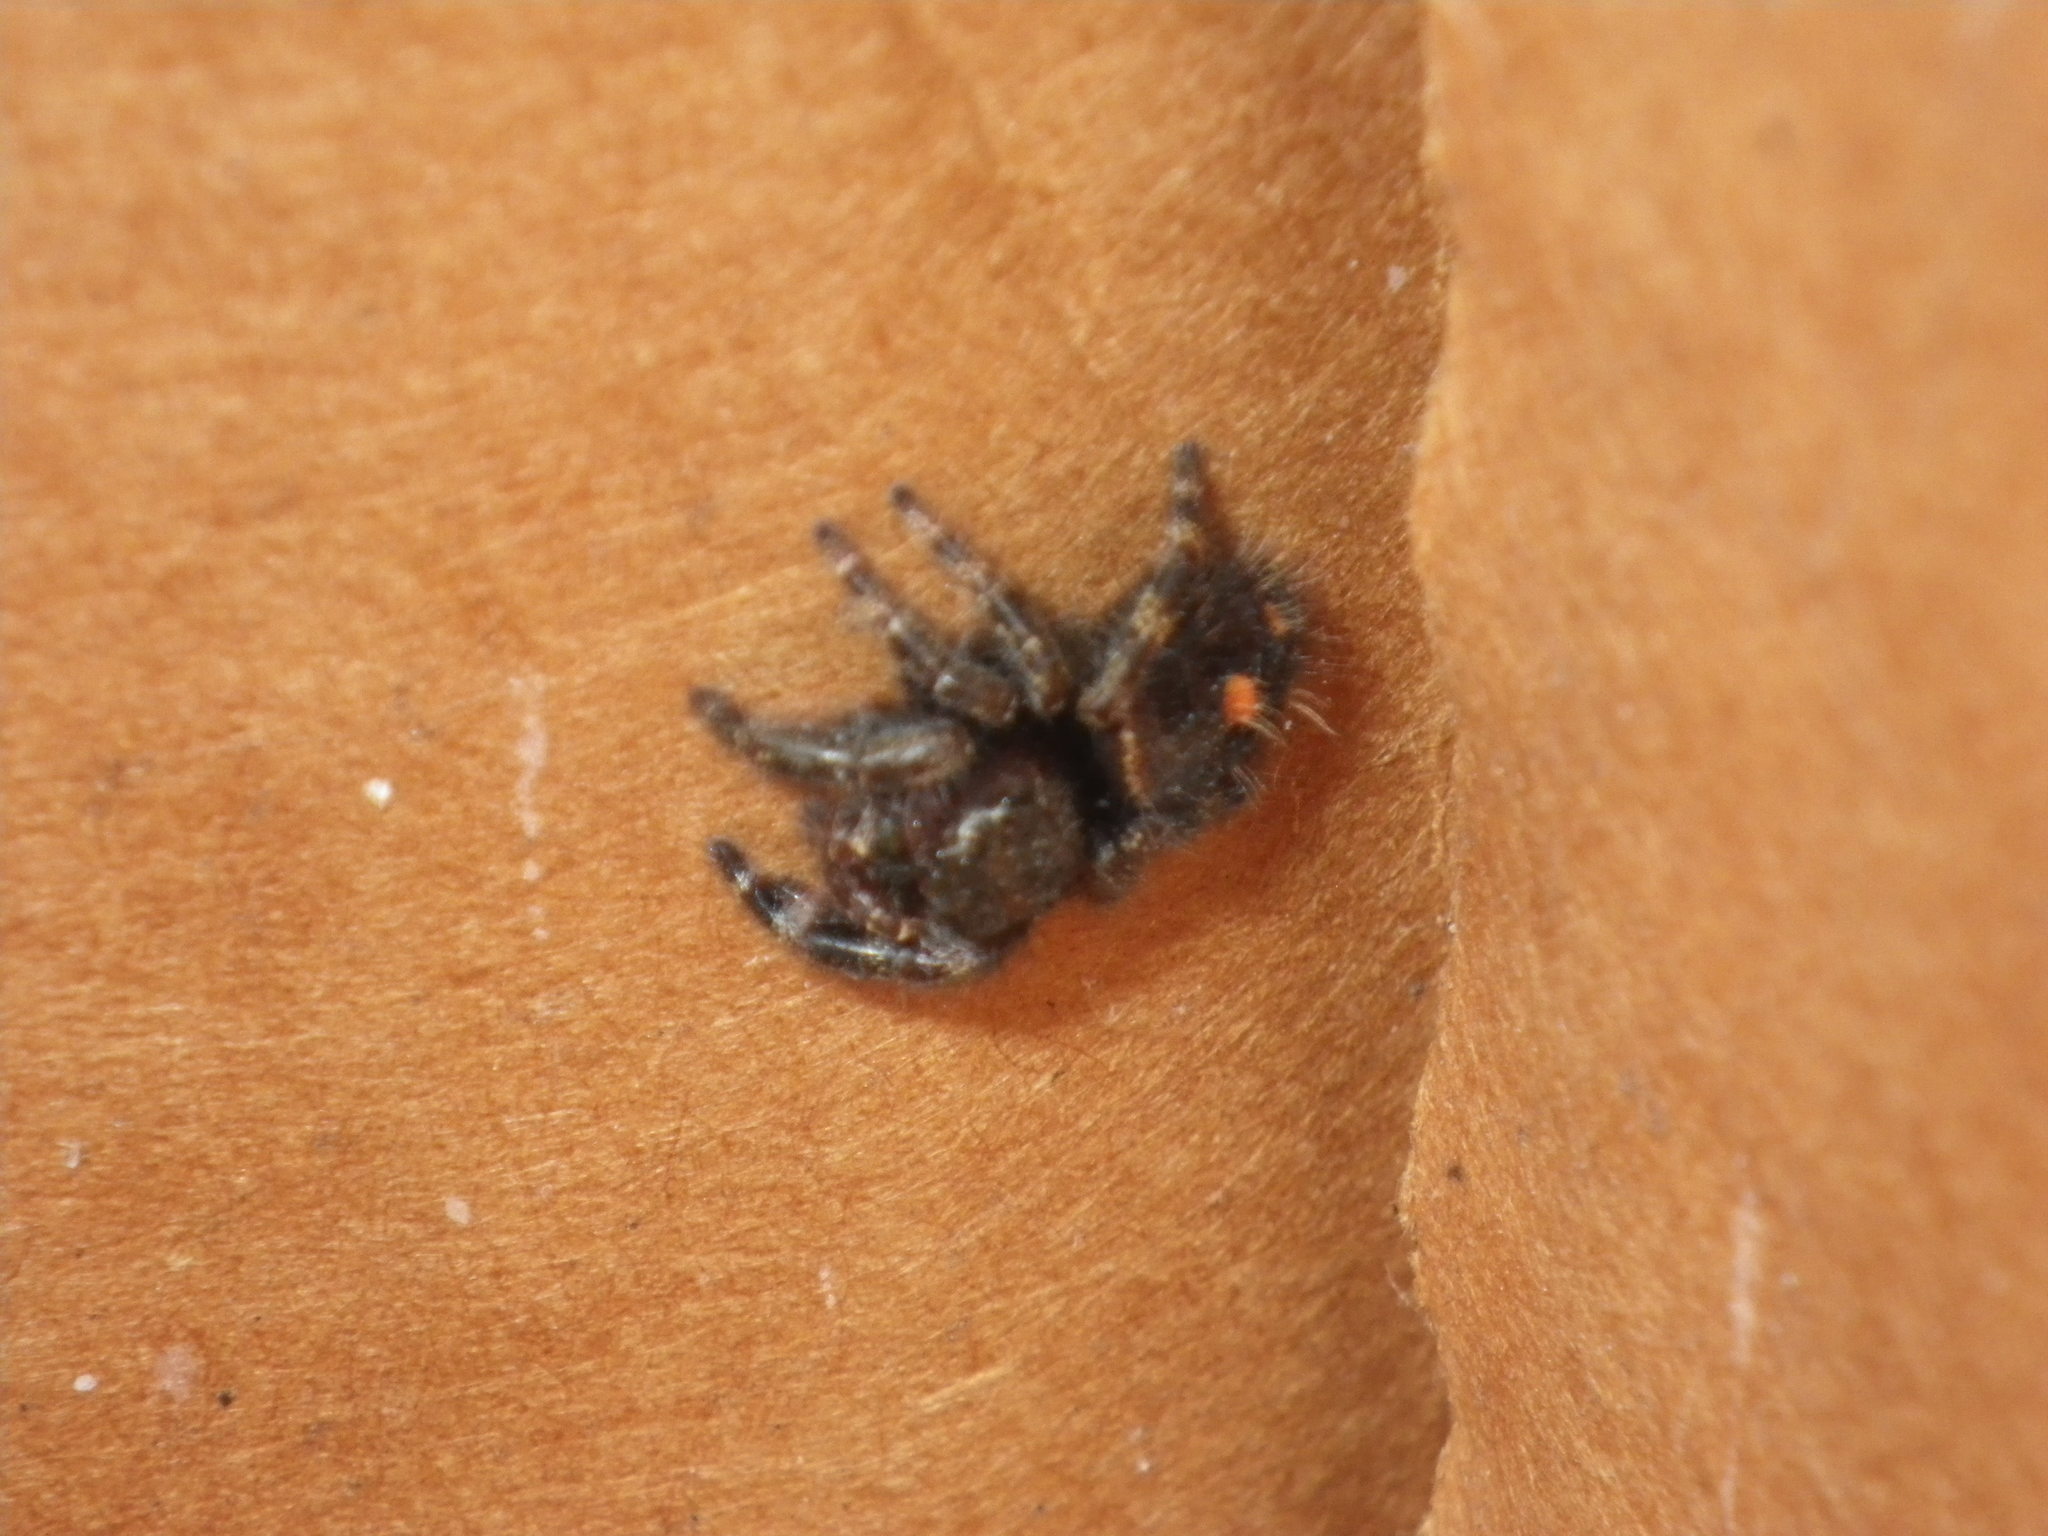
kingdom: Animalia
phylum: Arthropoda
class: Arachnida
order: Araneae
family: Salticidae
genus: Phidippus
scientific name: Phidippus audax
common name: Bold jumper
